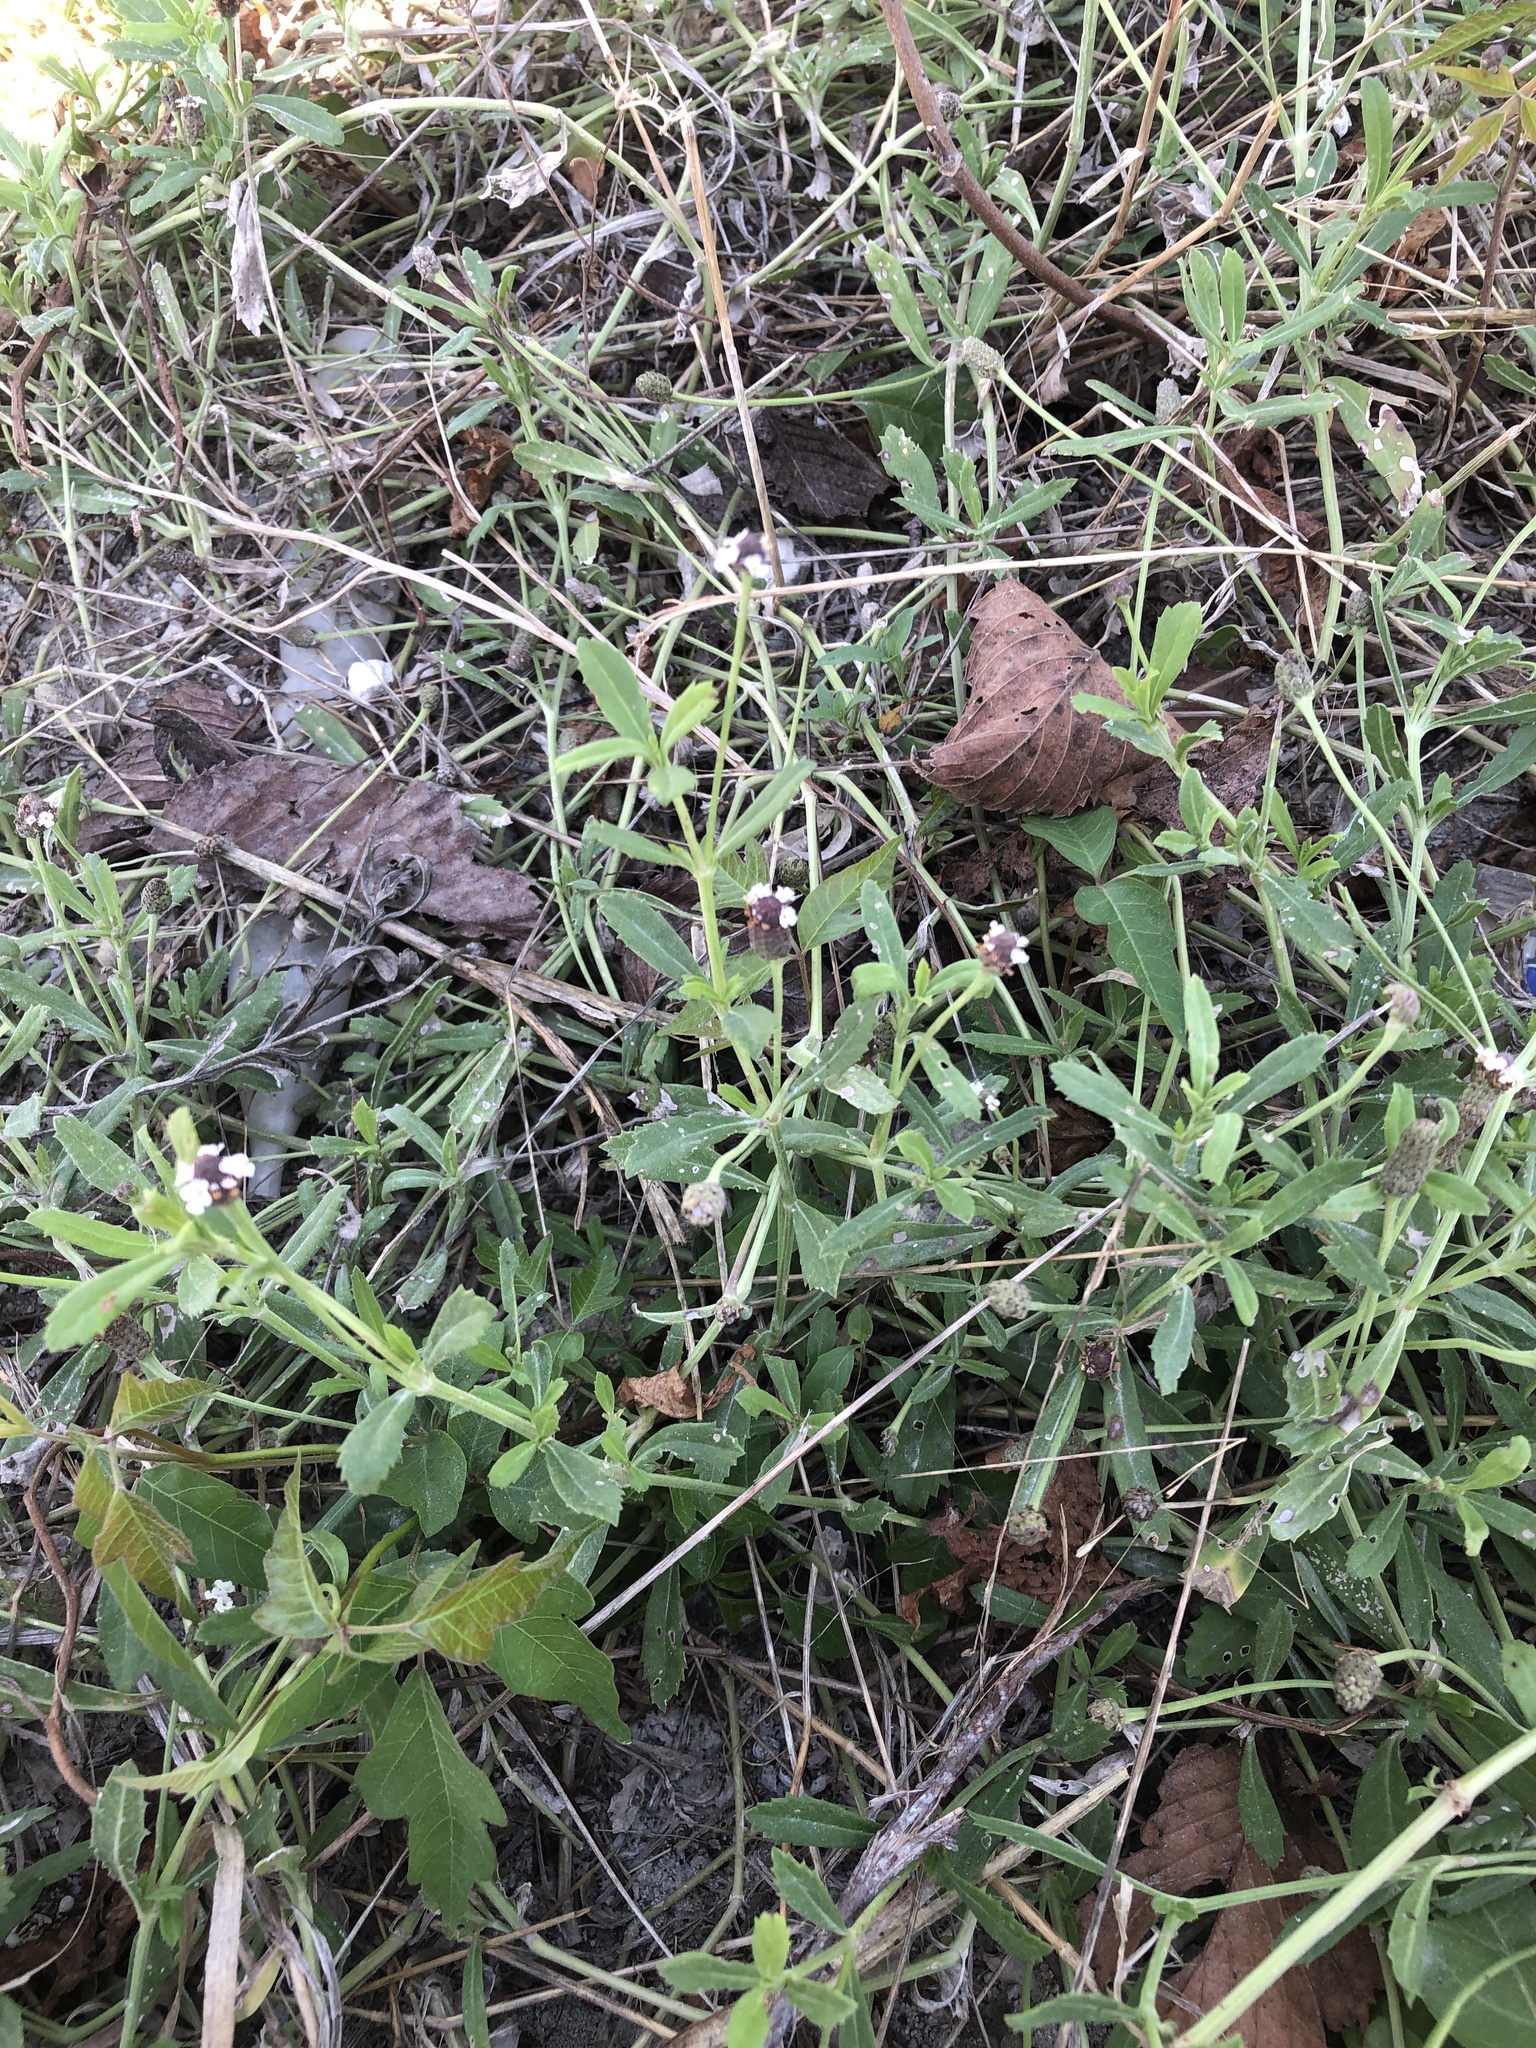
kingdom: Plantae
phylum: Tracheophyta
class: Magnoliopsida
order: Lamiales
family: Verbenaceae
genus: Phyla
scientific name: Phyla nodiflora
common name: Frogfruit
